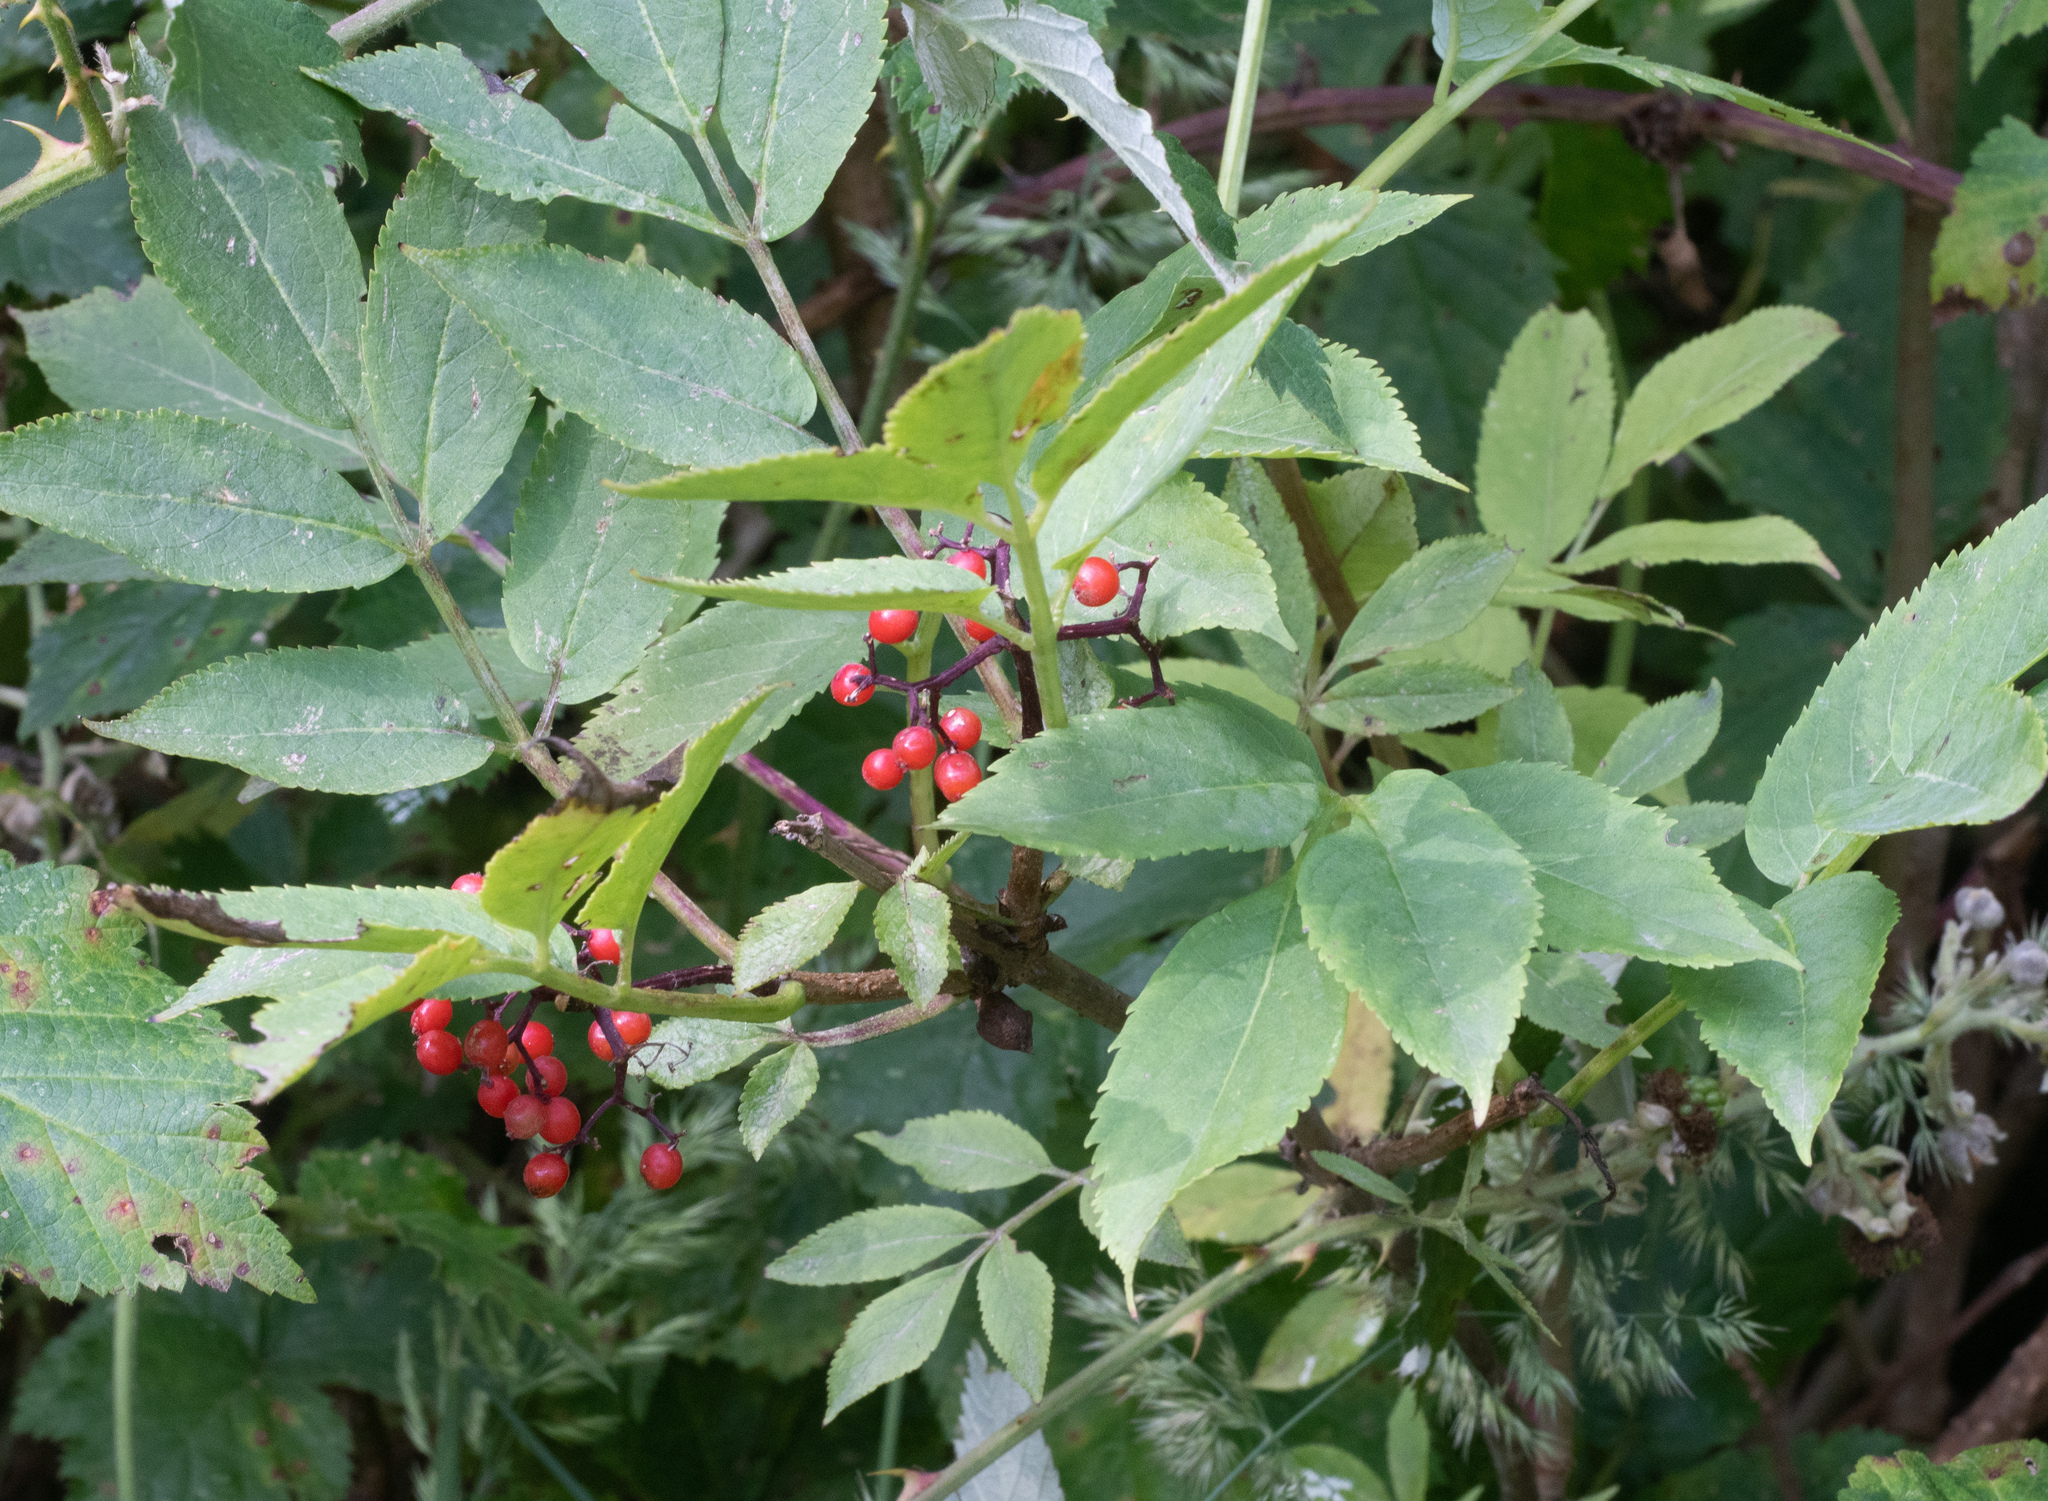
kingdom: Plantae
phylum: Tracheophyta
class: Magnoliopsida
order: Dipsacales
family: Viburnaceae
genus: Sambucus
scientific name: Sambucus racemosa
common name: Red-berried elder
